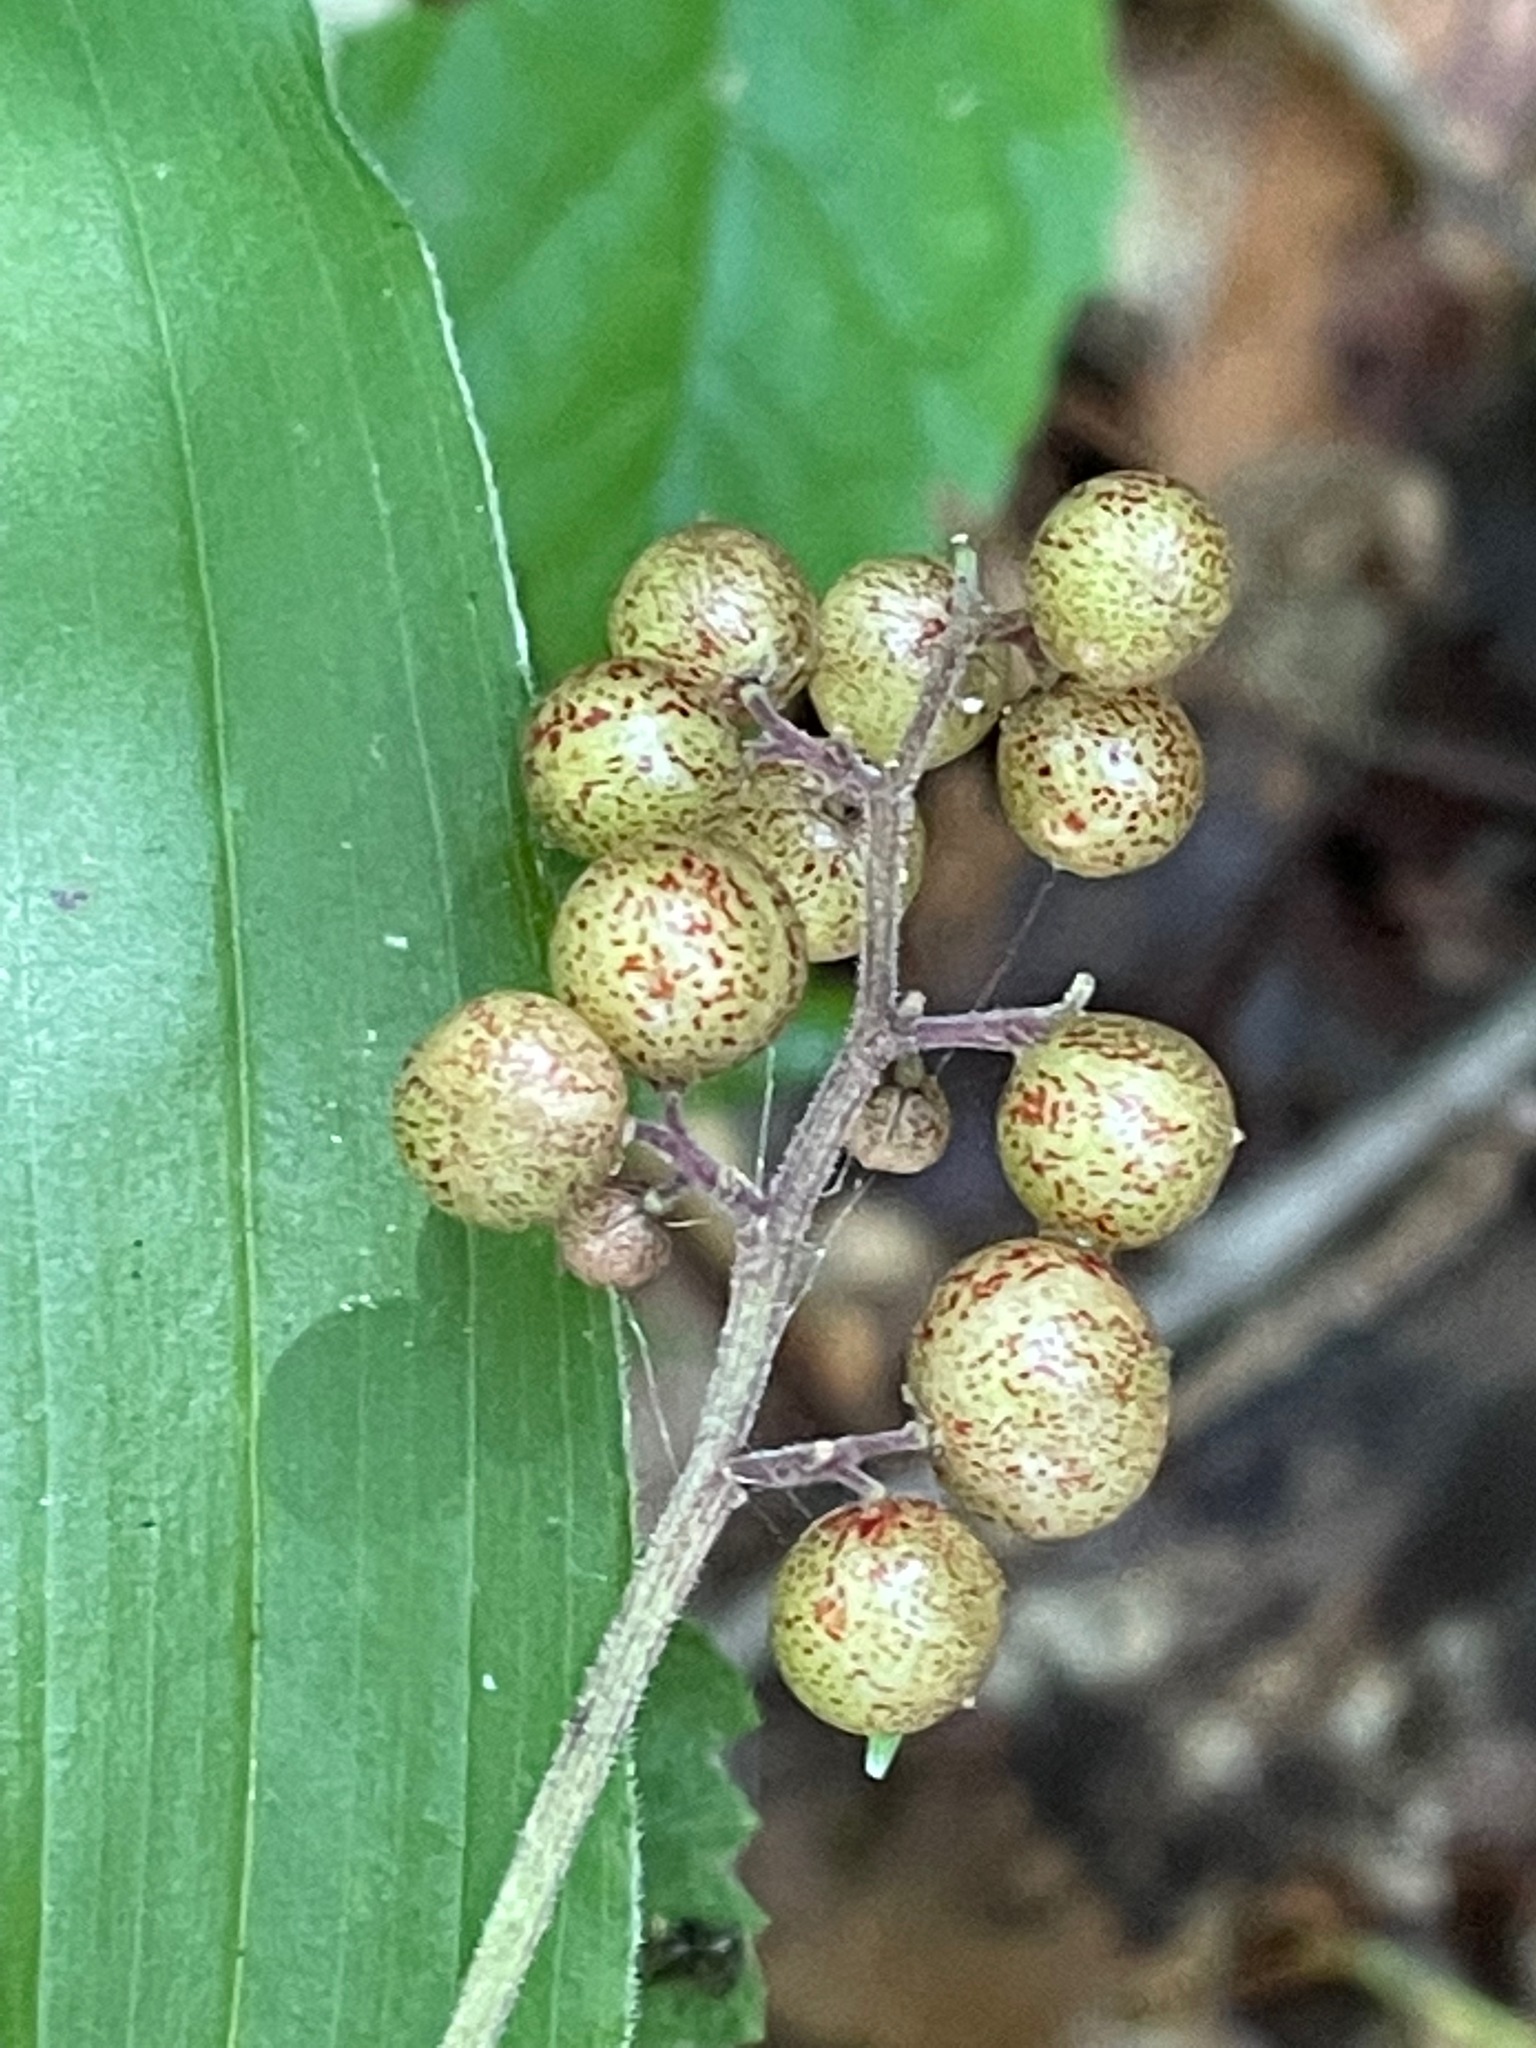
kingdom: Plantae
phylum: Tracheophyta
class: Liliopsida
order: Asparagales
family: Asparagaceae
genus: Maianthemum
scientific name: Maianthemum racemosum
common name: False spikenard
